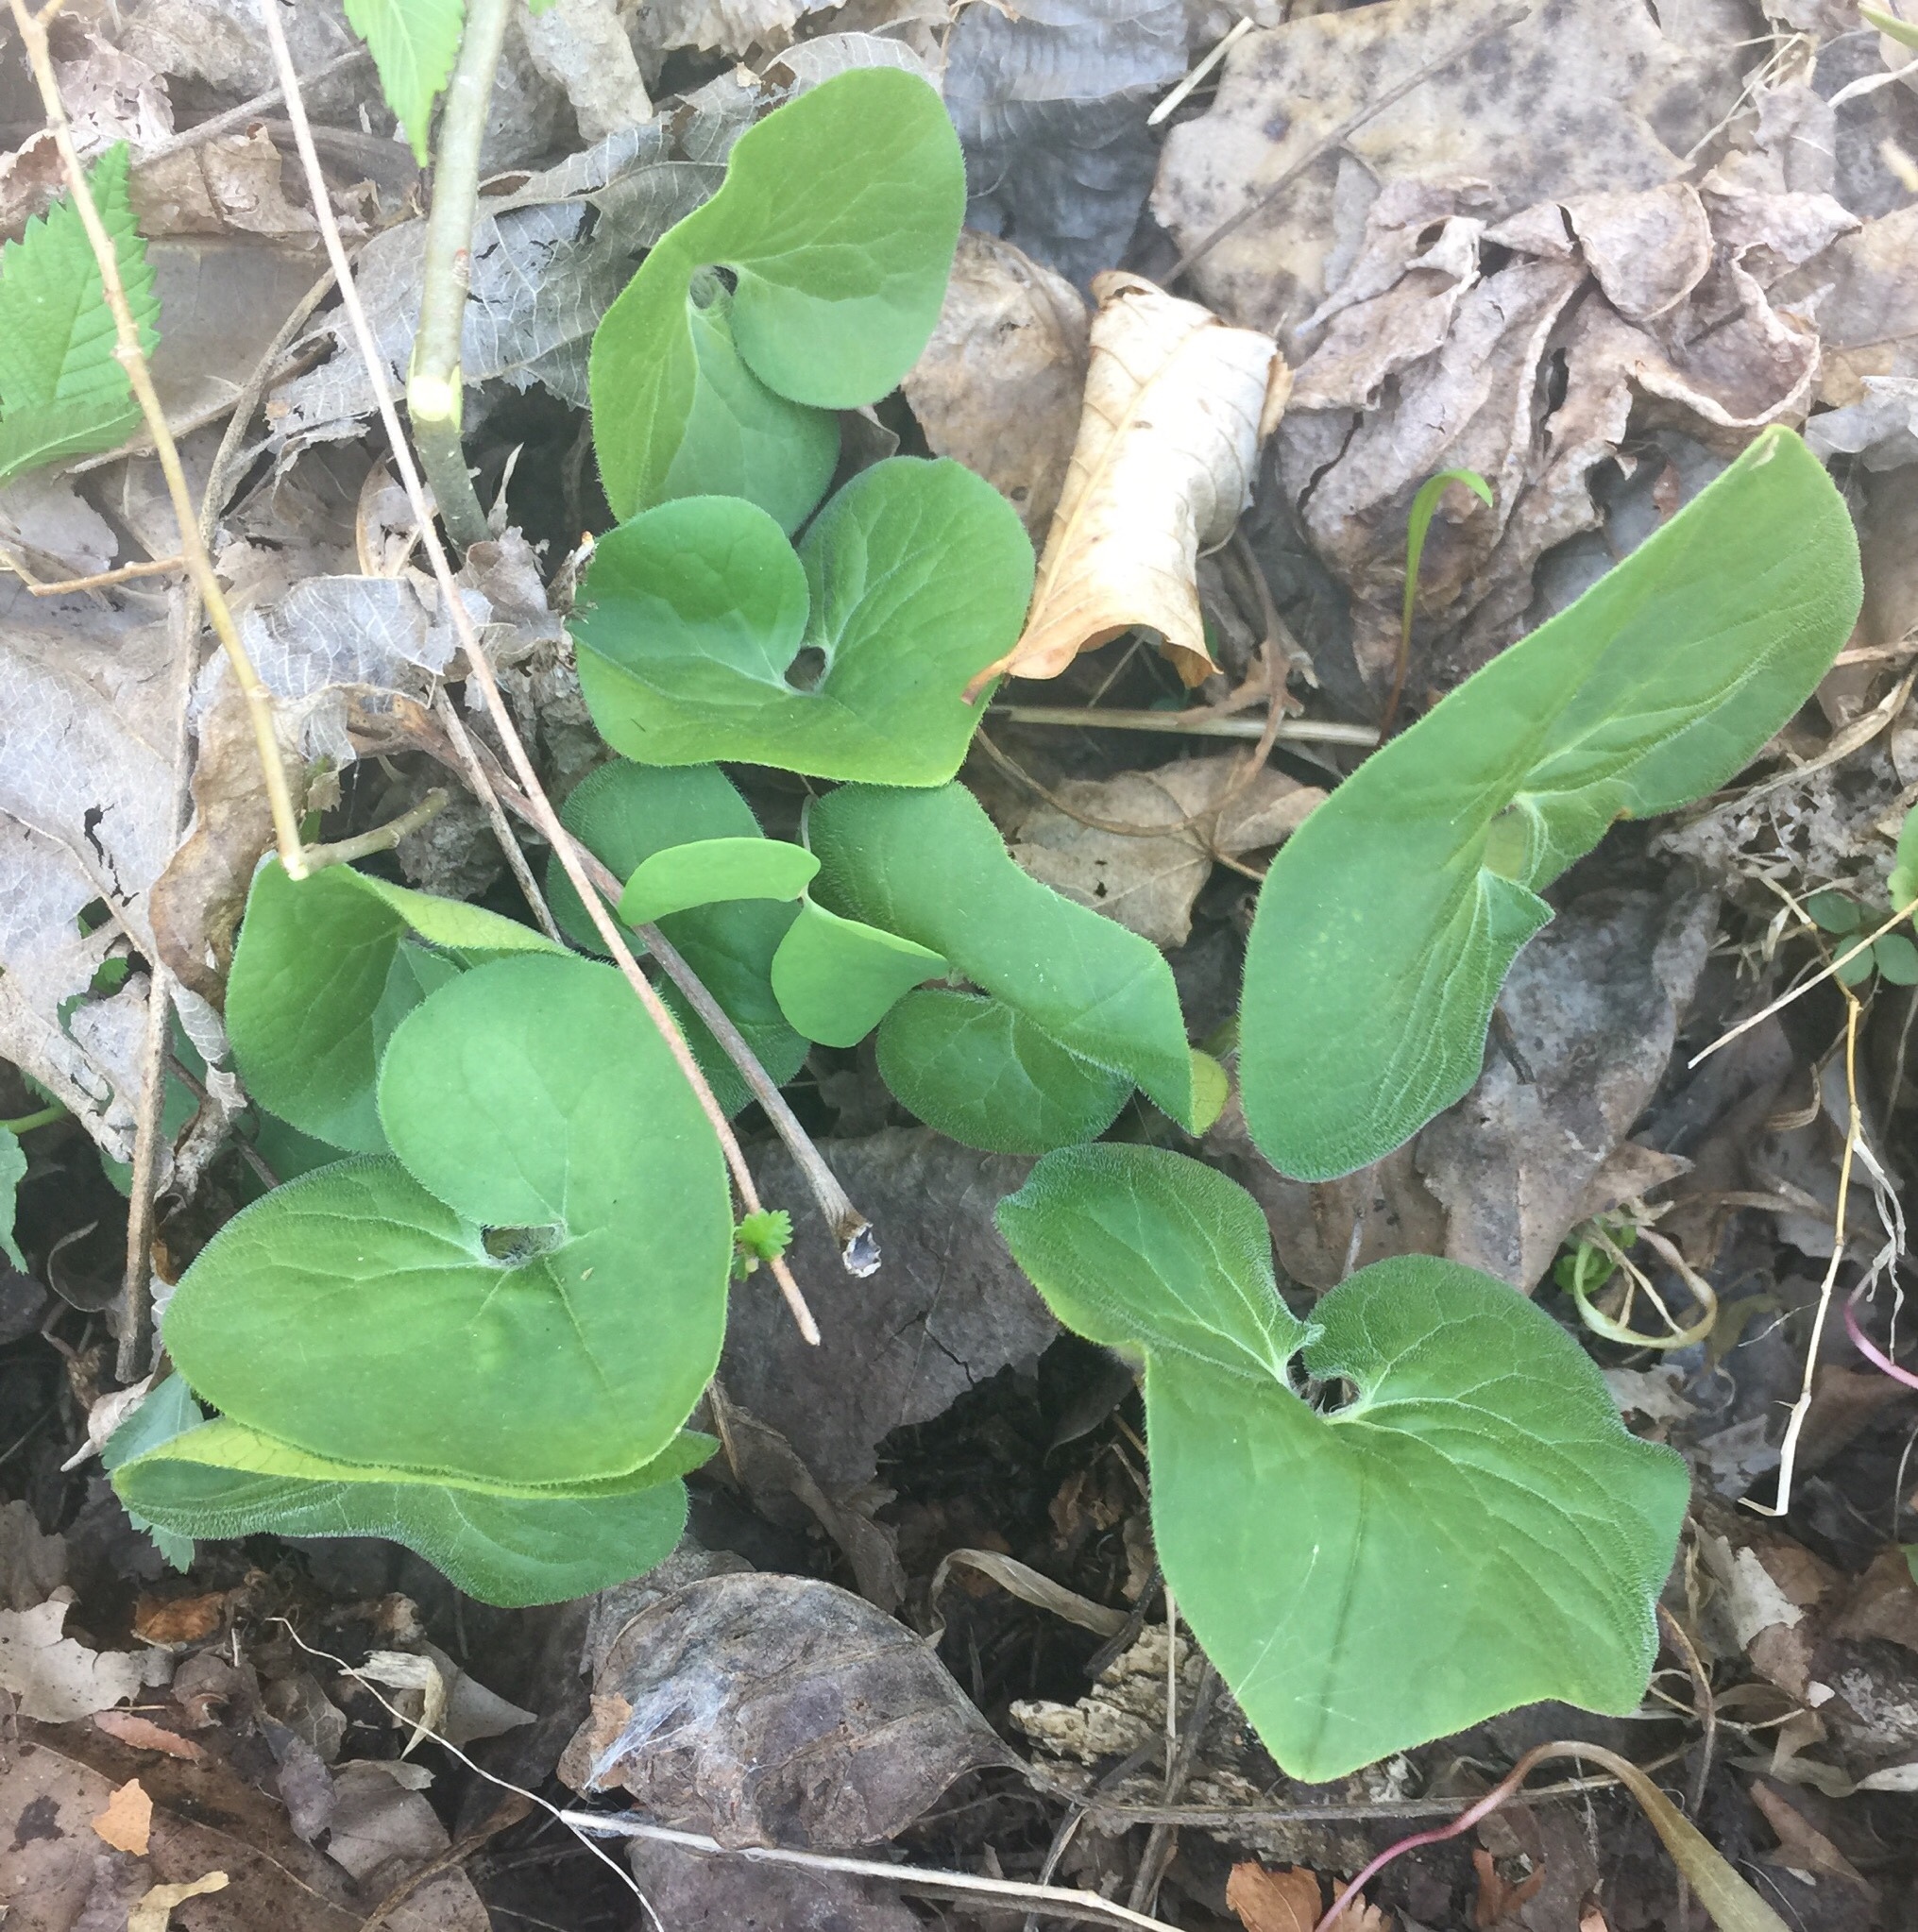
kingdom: Plantae
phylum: Tracheophyta
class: Magnoliopsida
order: Piperales
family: Aristolochiaceae
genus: Asarum
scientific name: Asarum canadense
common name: Wild ginger
